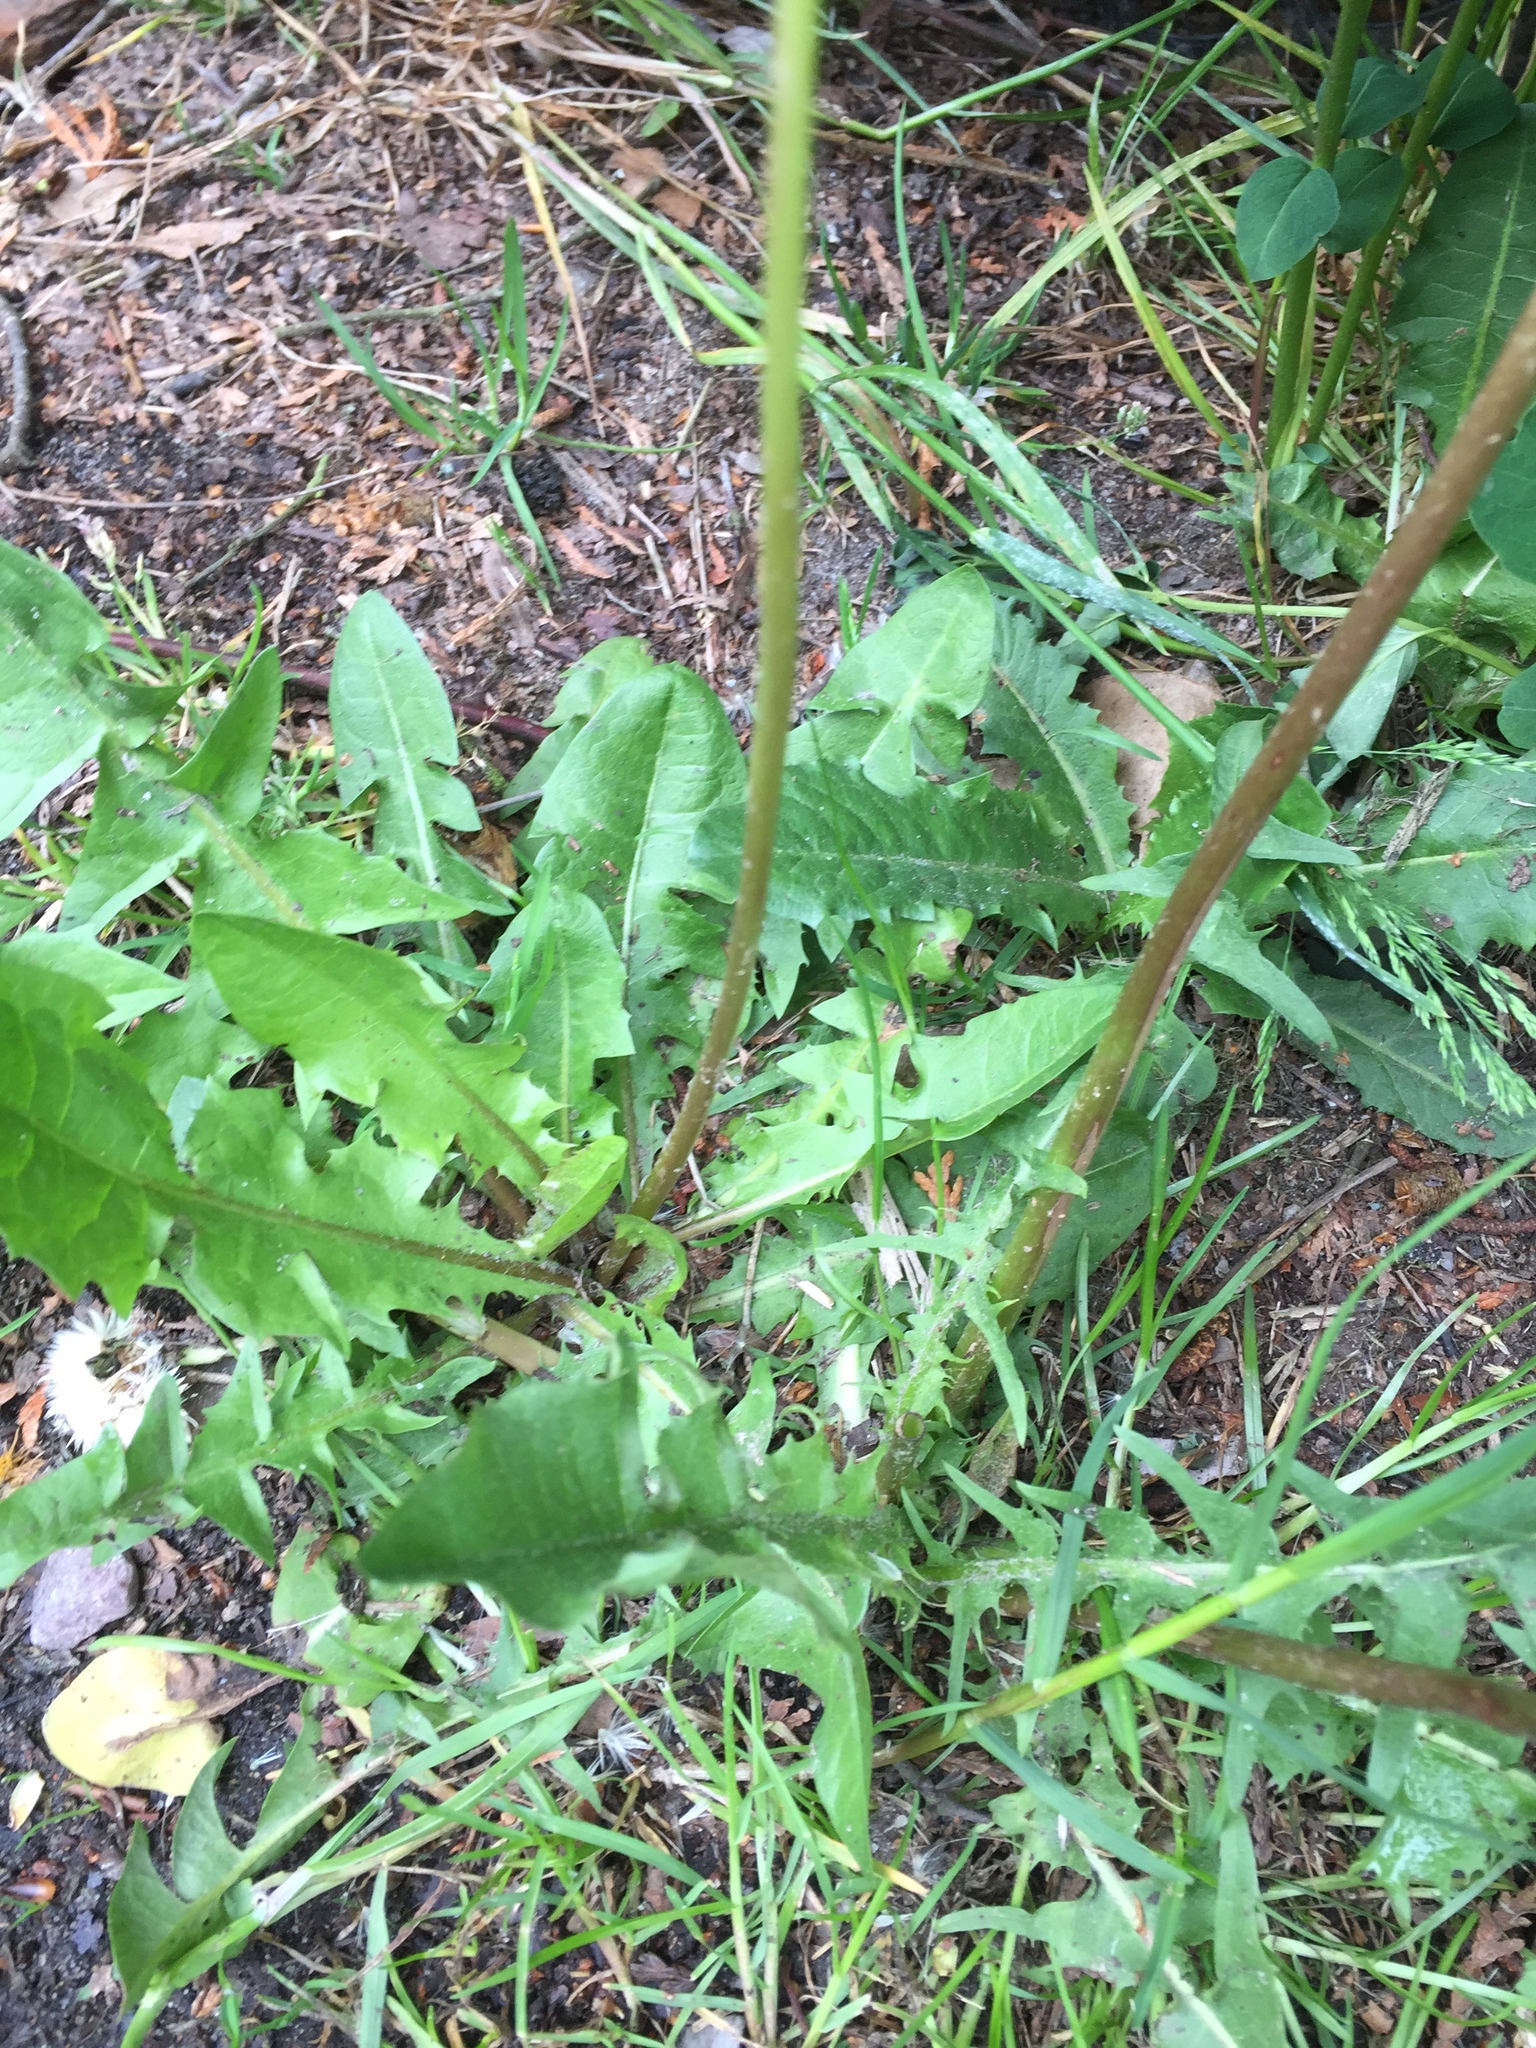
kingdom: Plantae
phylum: Tracheophyta
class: Magnoliopsida
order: Asterales
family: Asteraceae
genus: Taraxacum
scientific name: Taraxacum officinale
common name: Common dandelion
